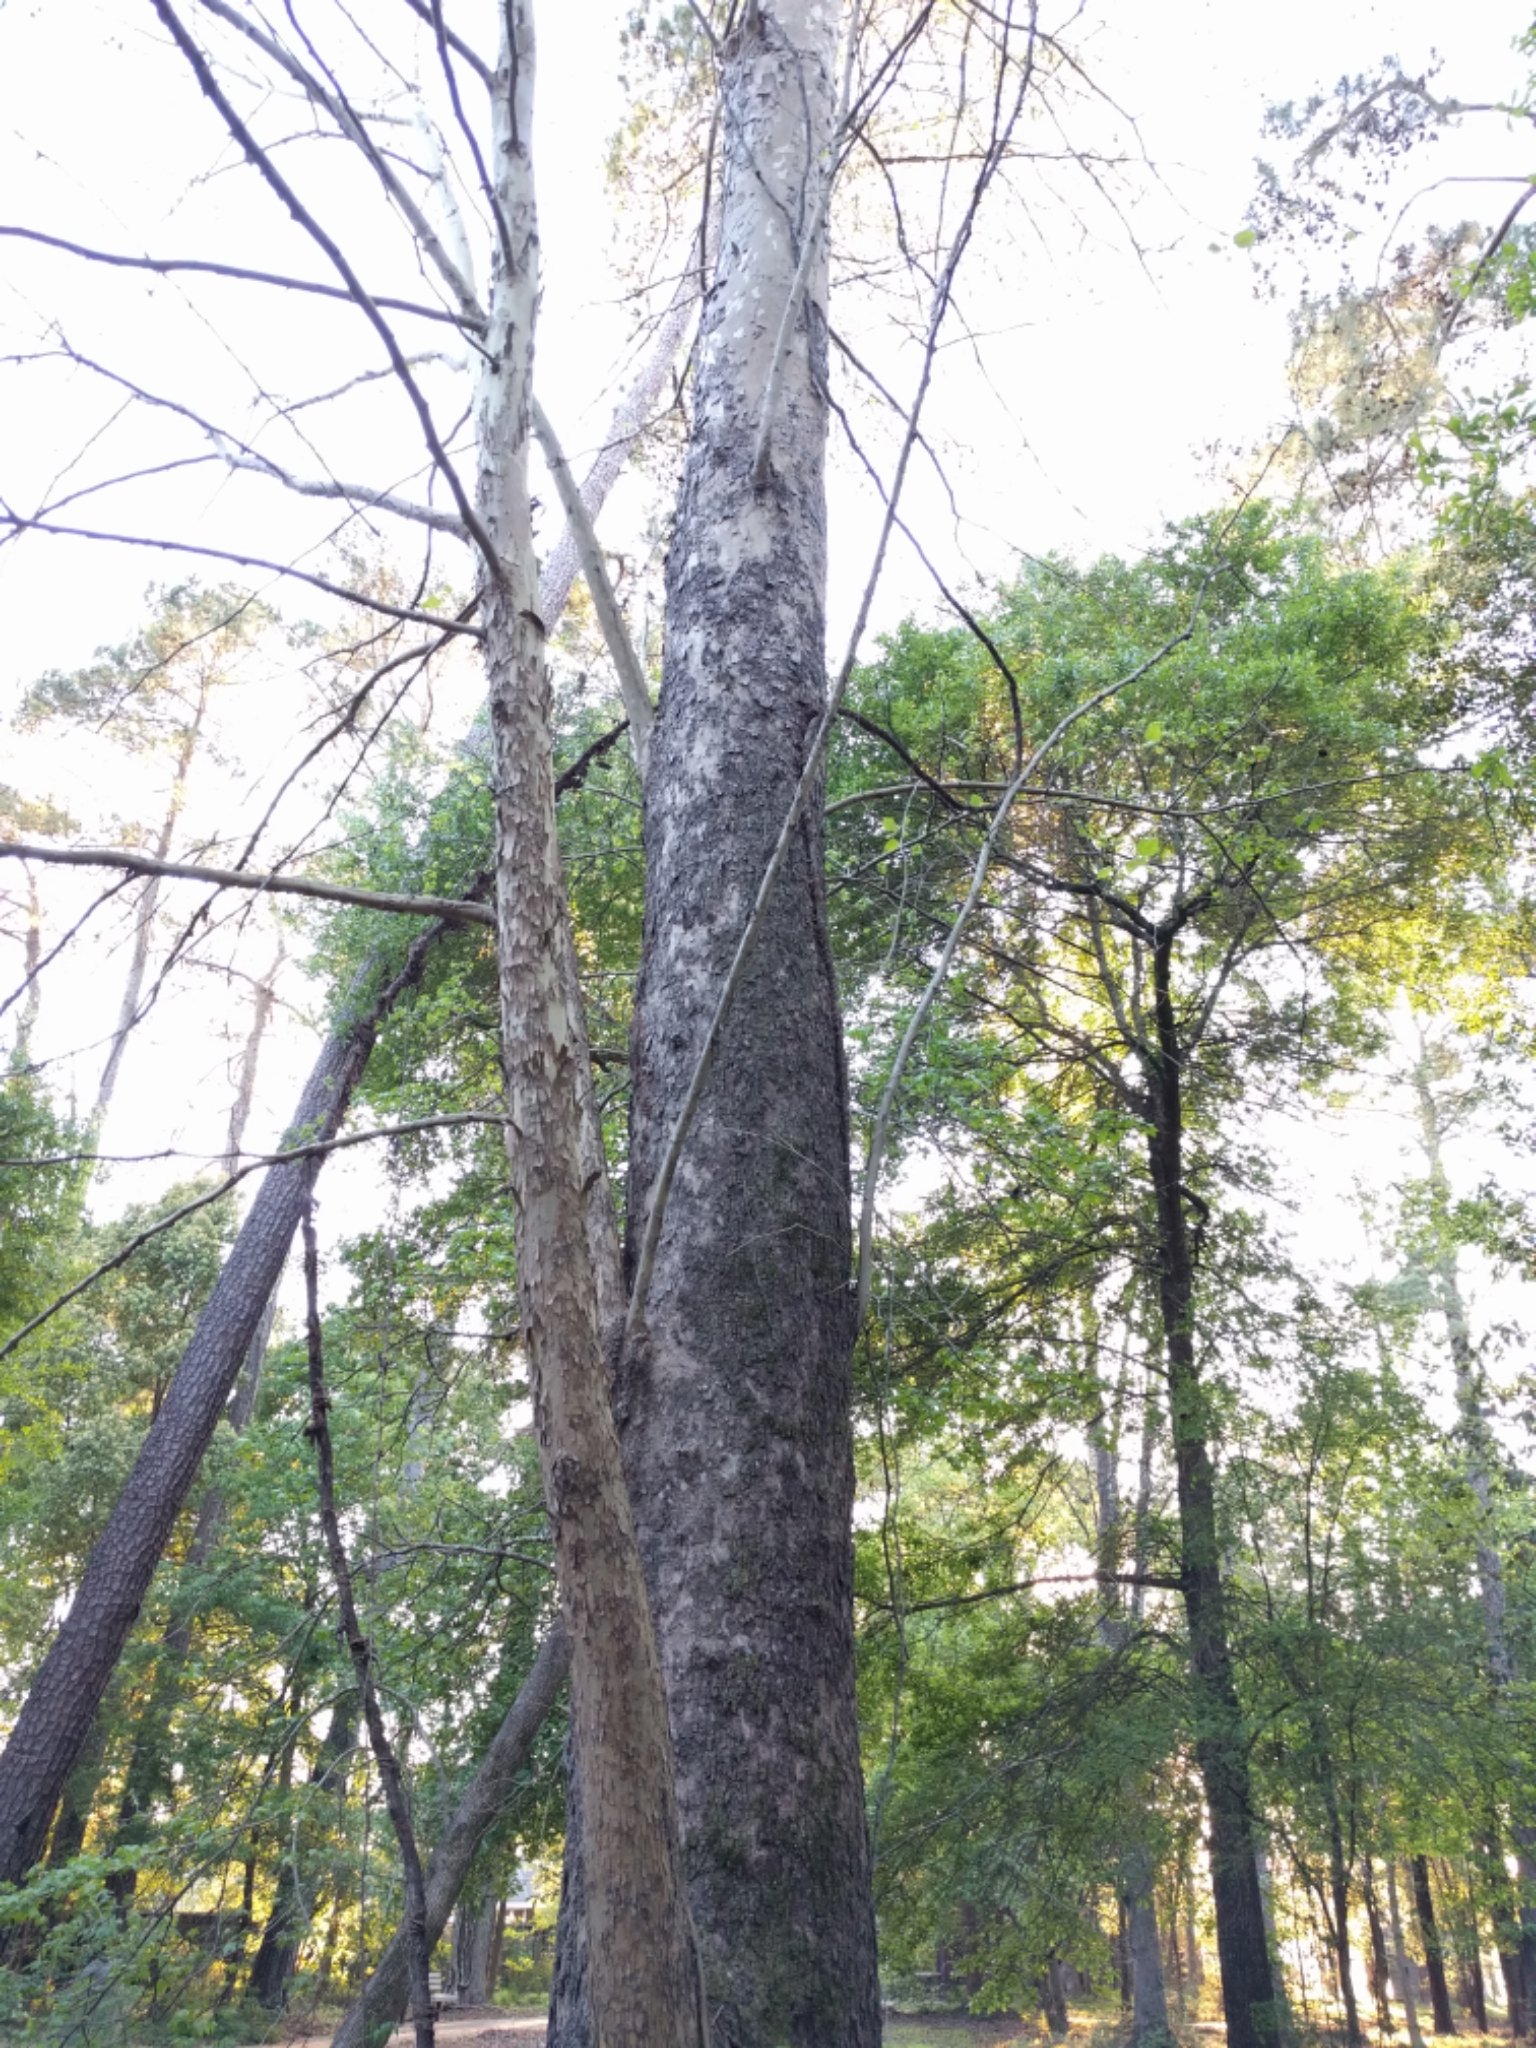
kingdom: Plantae
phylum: Tracheophyta
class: Magnoliopsida
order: Proteales
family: Platanaceae
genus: Platanus
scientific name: Platanus occidentalis
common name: American sycamore
